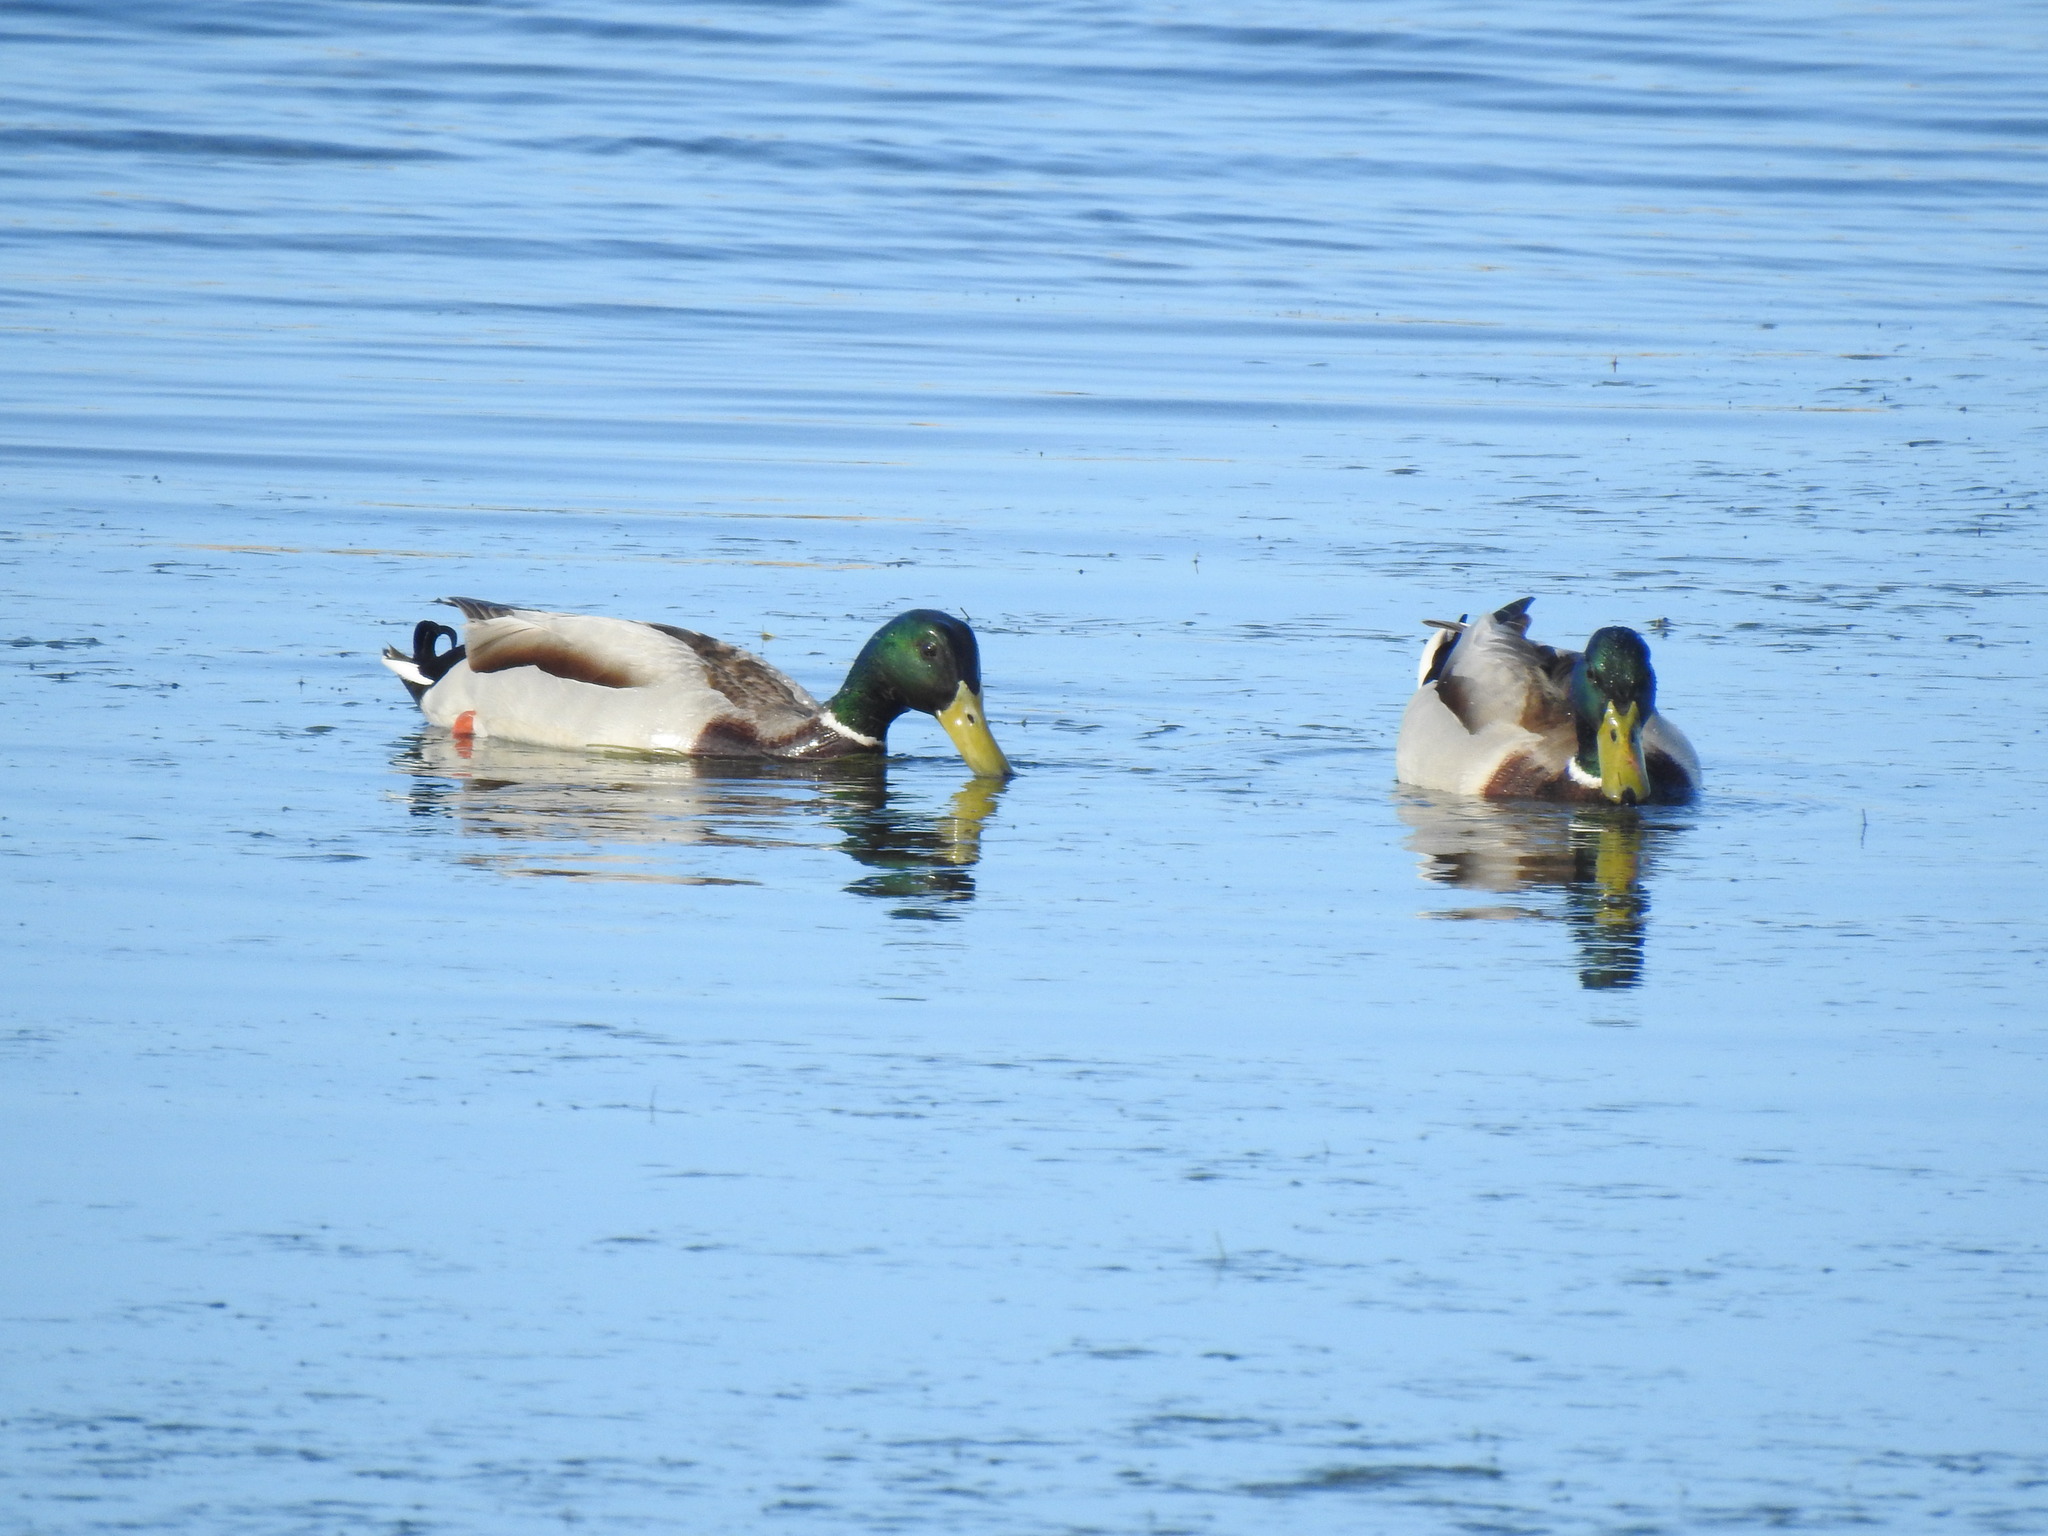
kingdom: Animalia
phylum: Chordata
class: Aves
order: Anseriformes
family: Anatidae
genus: Anas
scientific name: Anas platyrhynchos
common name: Mallard
